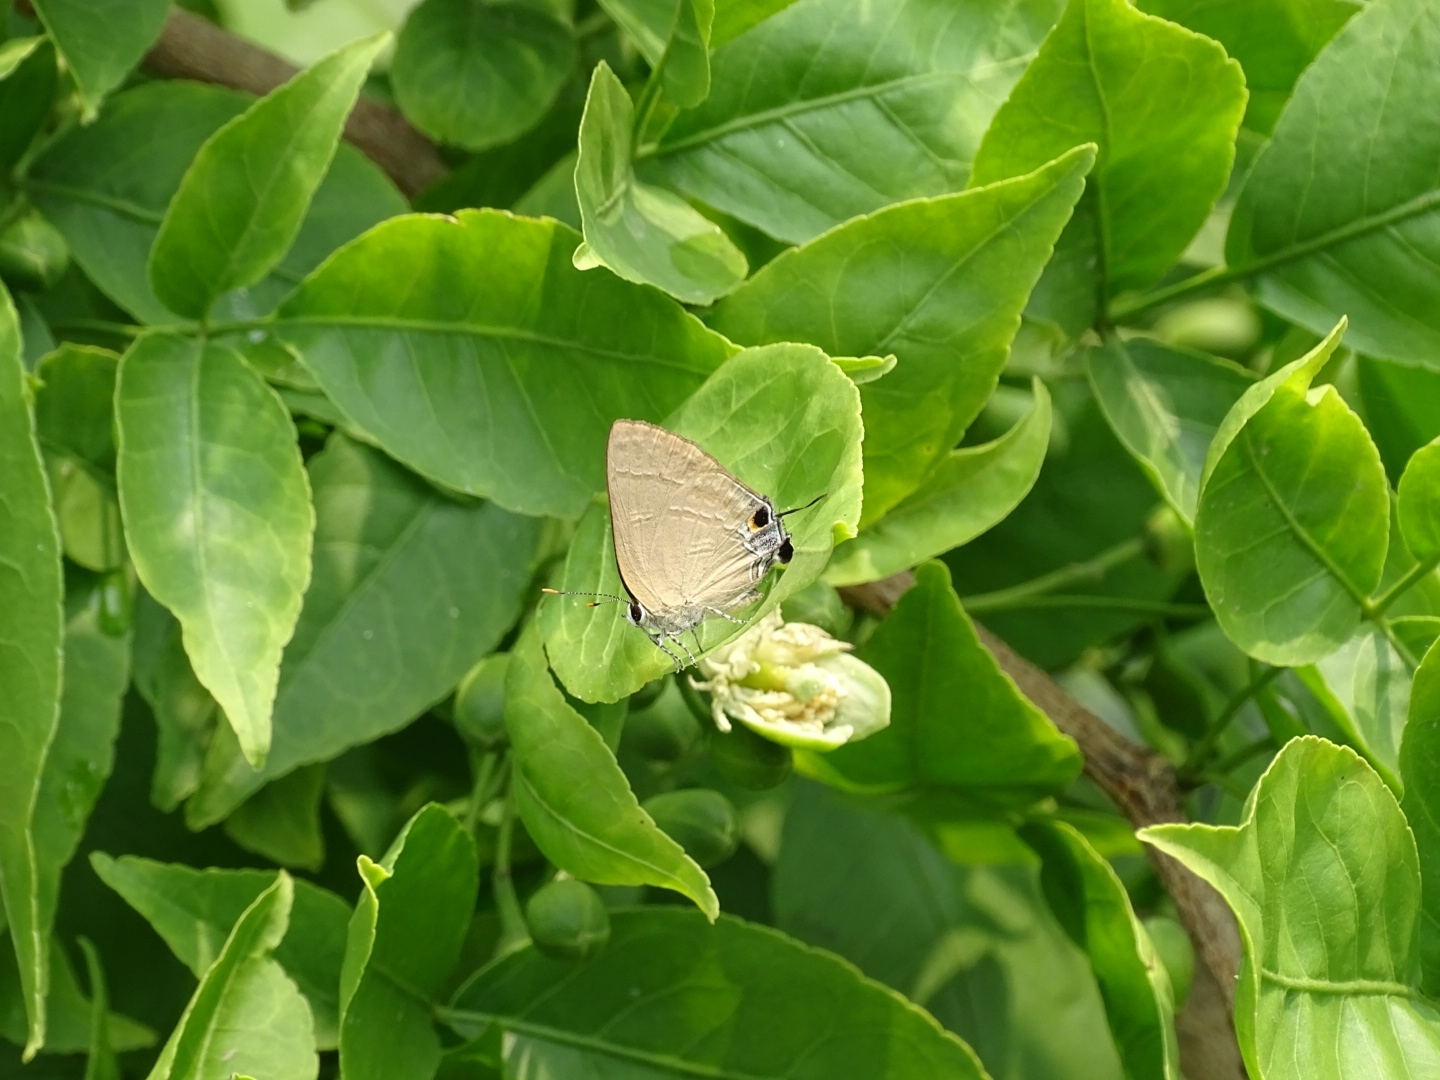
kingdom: Animalia
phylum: Arthropoda
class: Insecta
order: Lepidoptera
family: Lycaenidae
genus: Rapala
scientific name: Rapala manea
